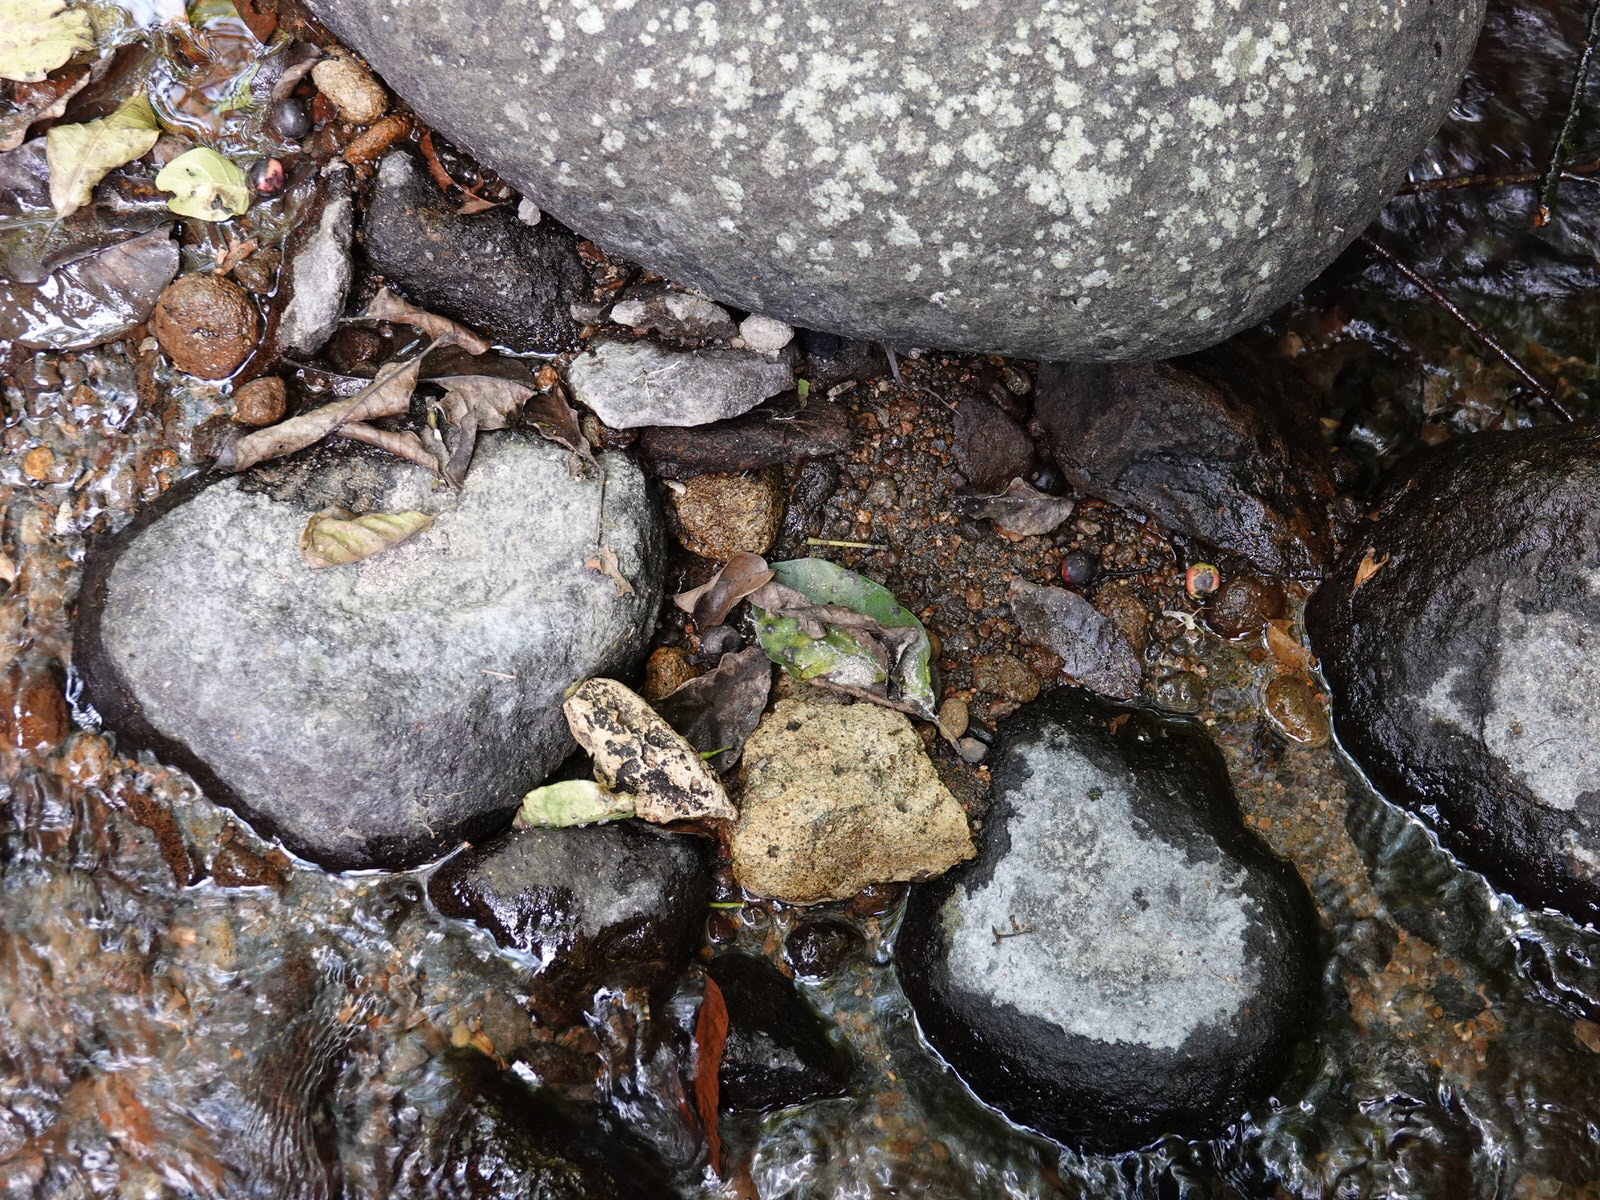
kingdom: Animalia
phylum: Arthropoda
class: Arachnida
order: Araneae
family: Pisauridae
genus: Dolomedes
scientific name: Dolomedes dondalei
